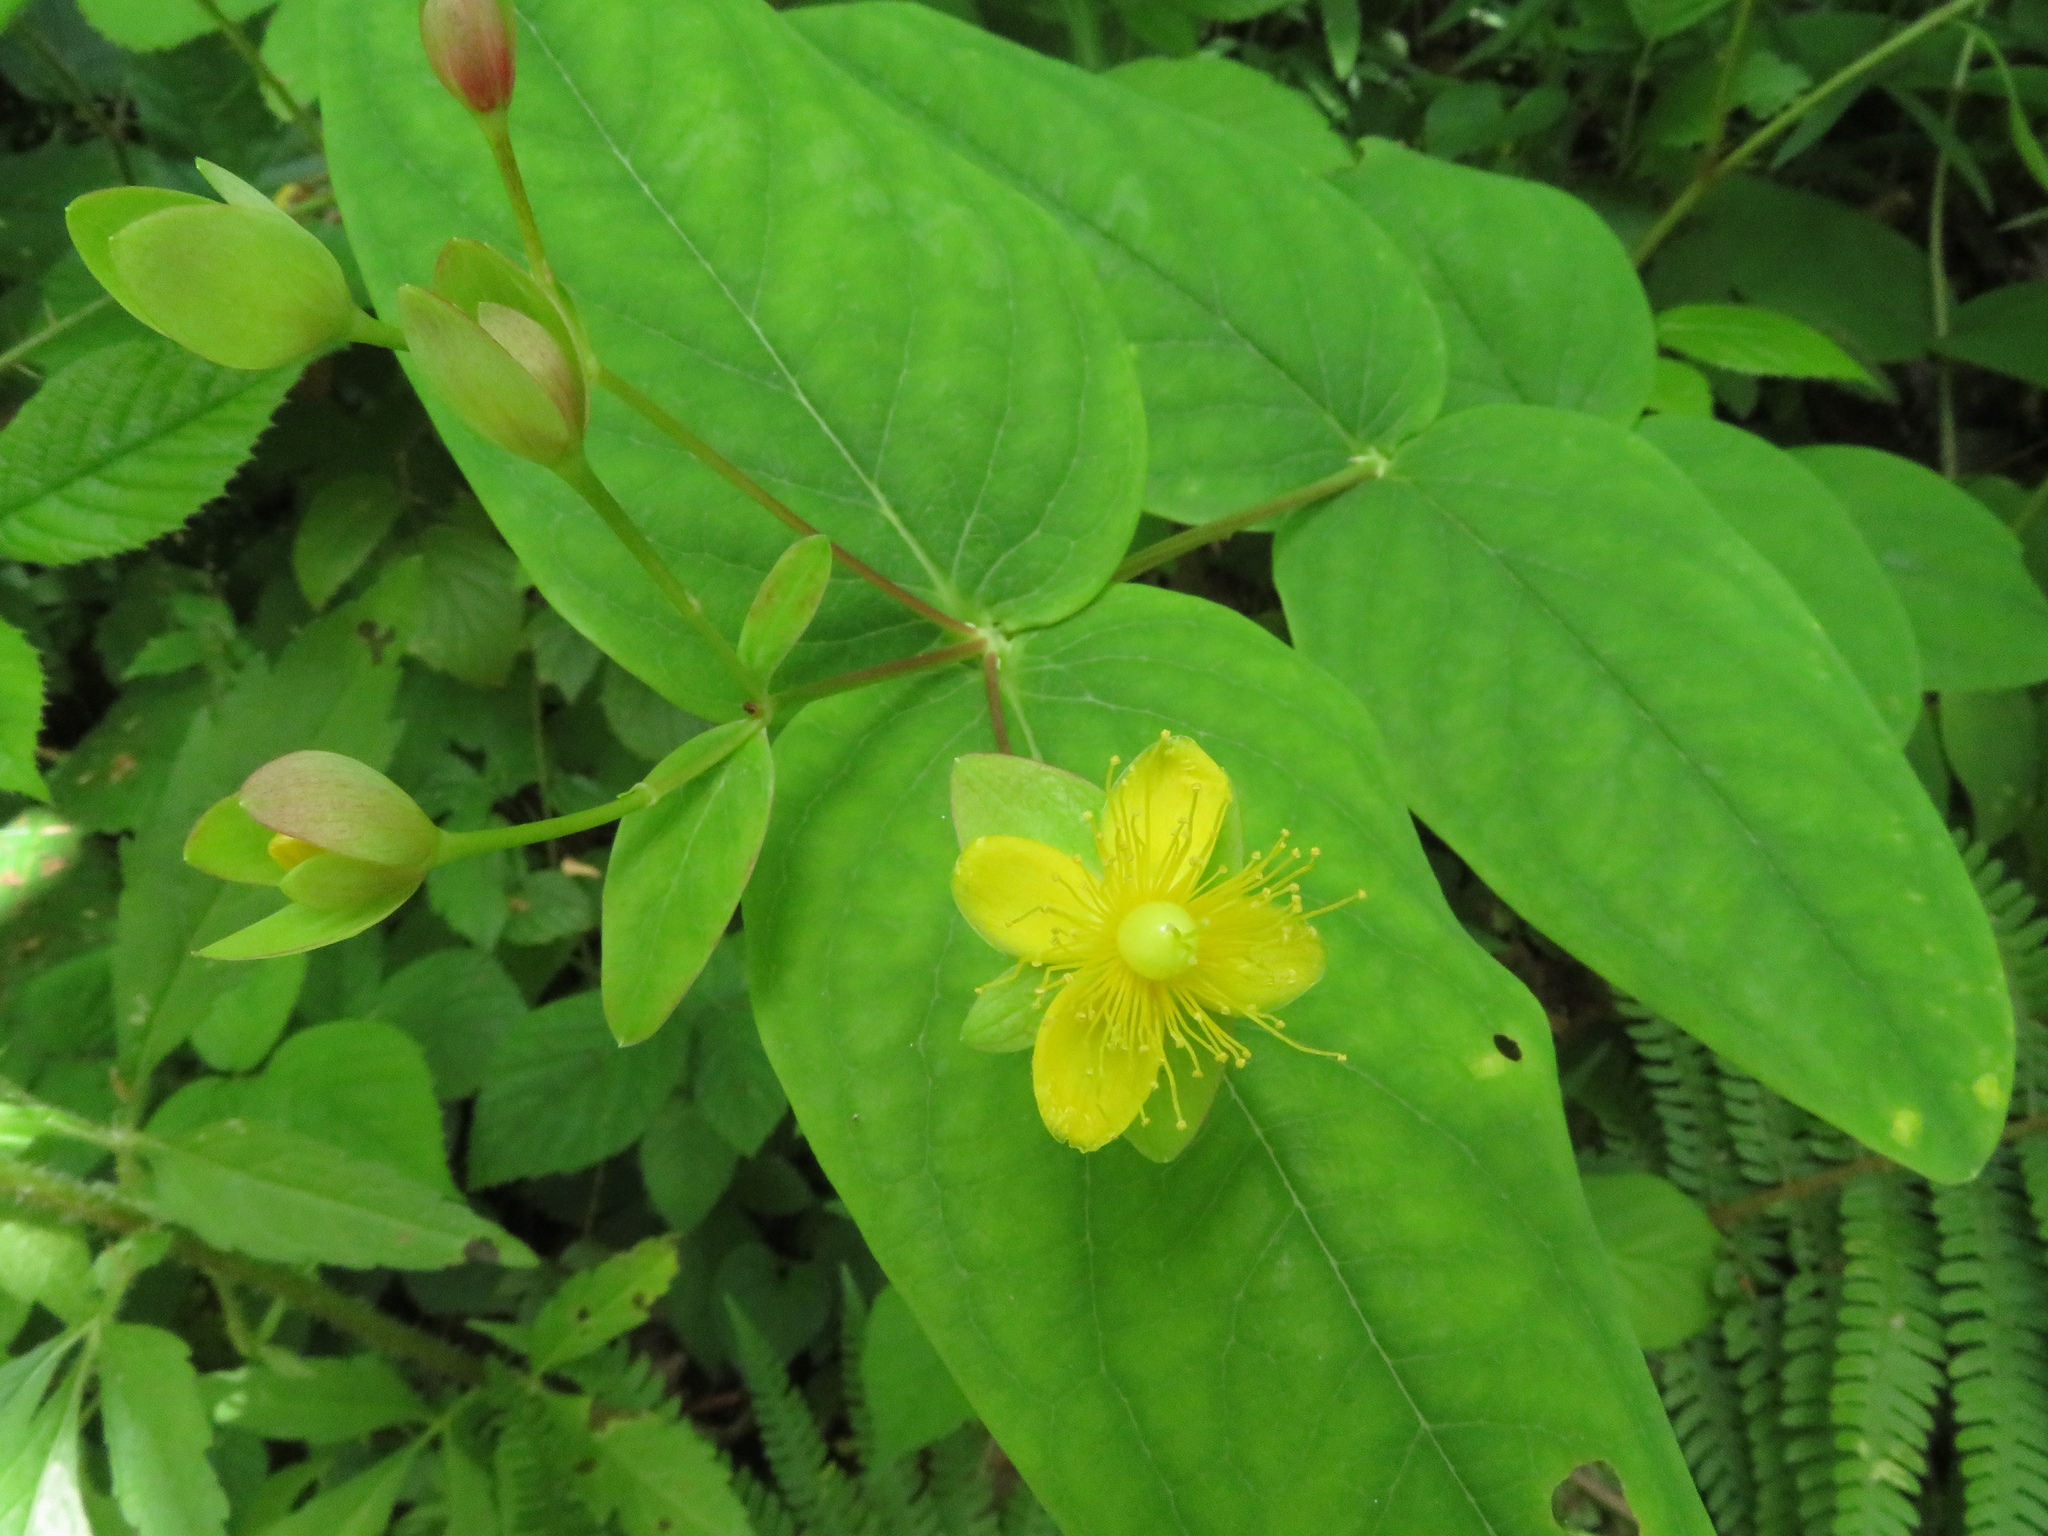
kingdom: Plantae
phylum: Tracheophyta
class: Magnoliopsida
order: Malpighiales
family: Hypericaceae
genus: Hypericum
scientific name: Hypericum androsaemum
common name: Sweet-amber
